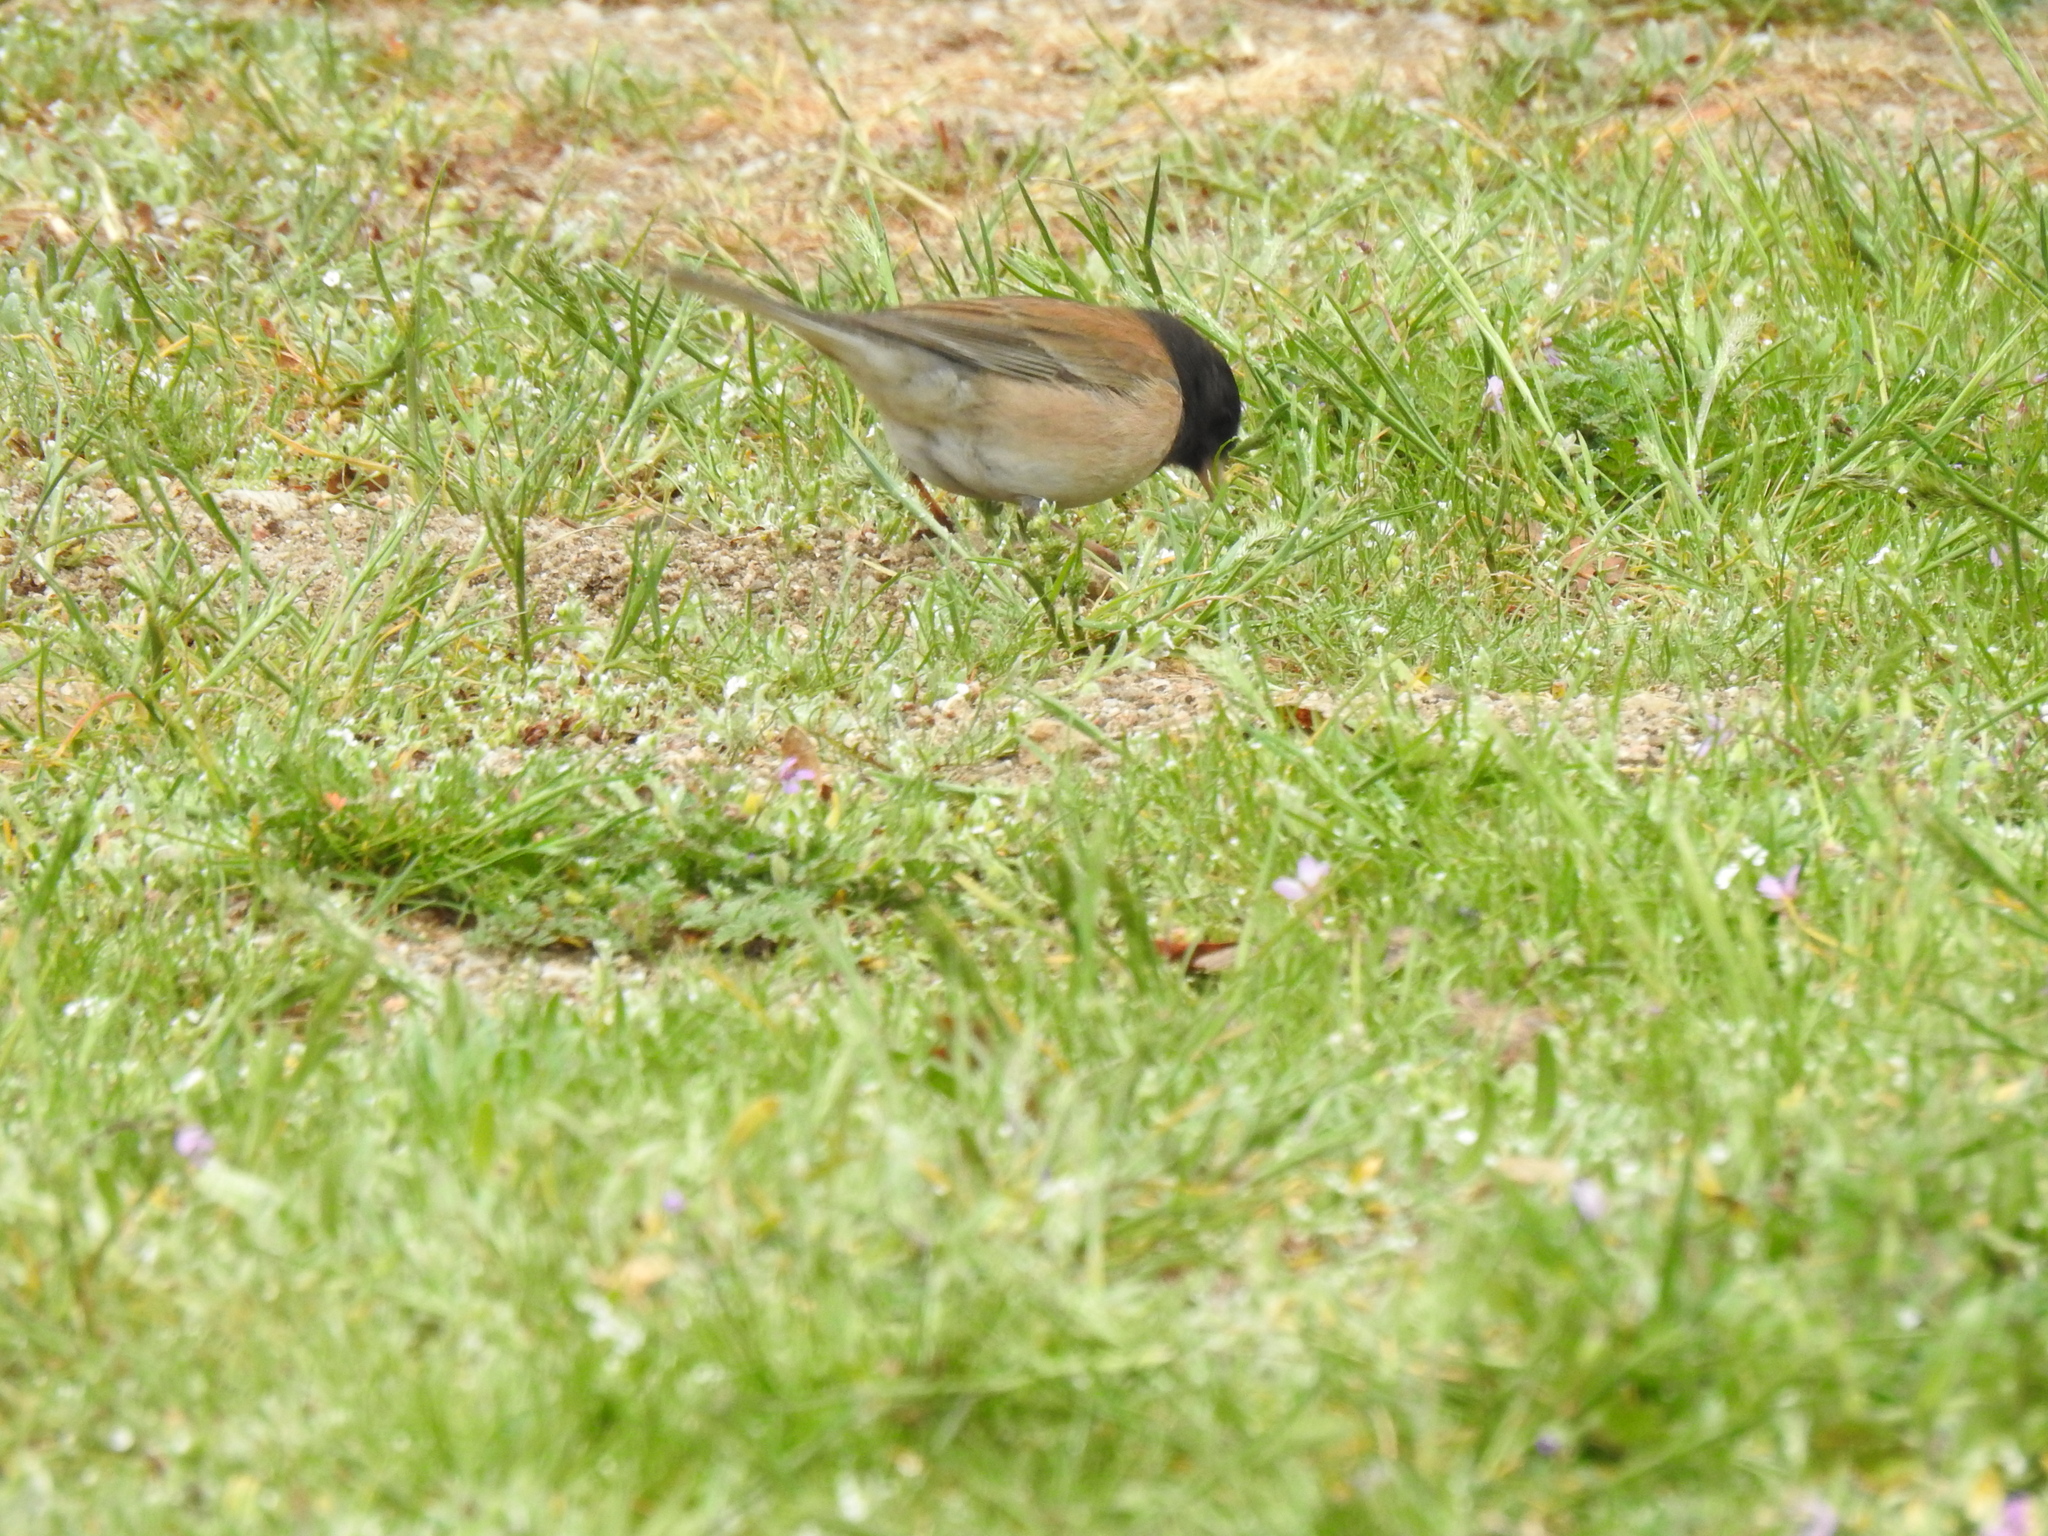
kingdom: Animalia
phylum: Chordata
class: Aves
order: Passeriformes
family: Passerellidae
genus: Junco
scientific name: Junco hyemalis
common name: Dark-eyed junco
